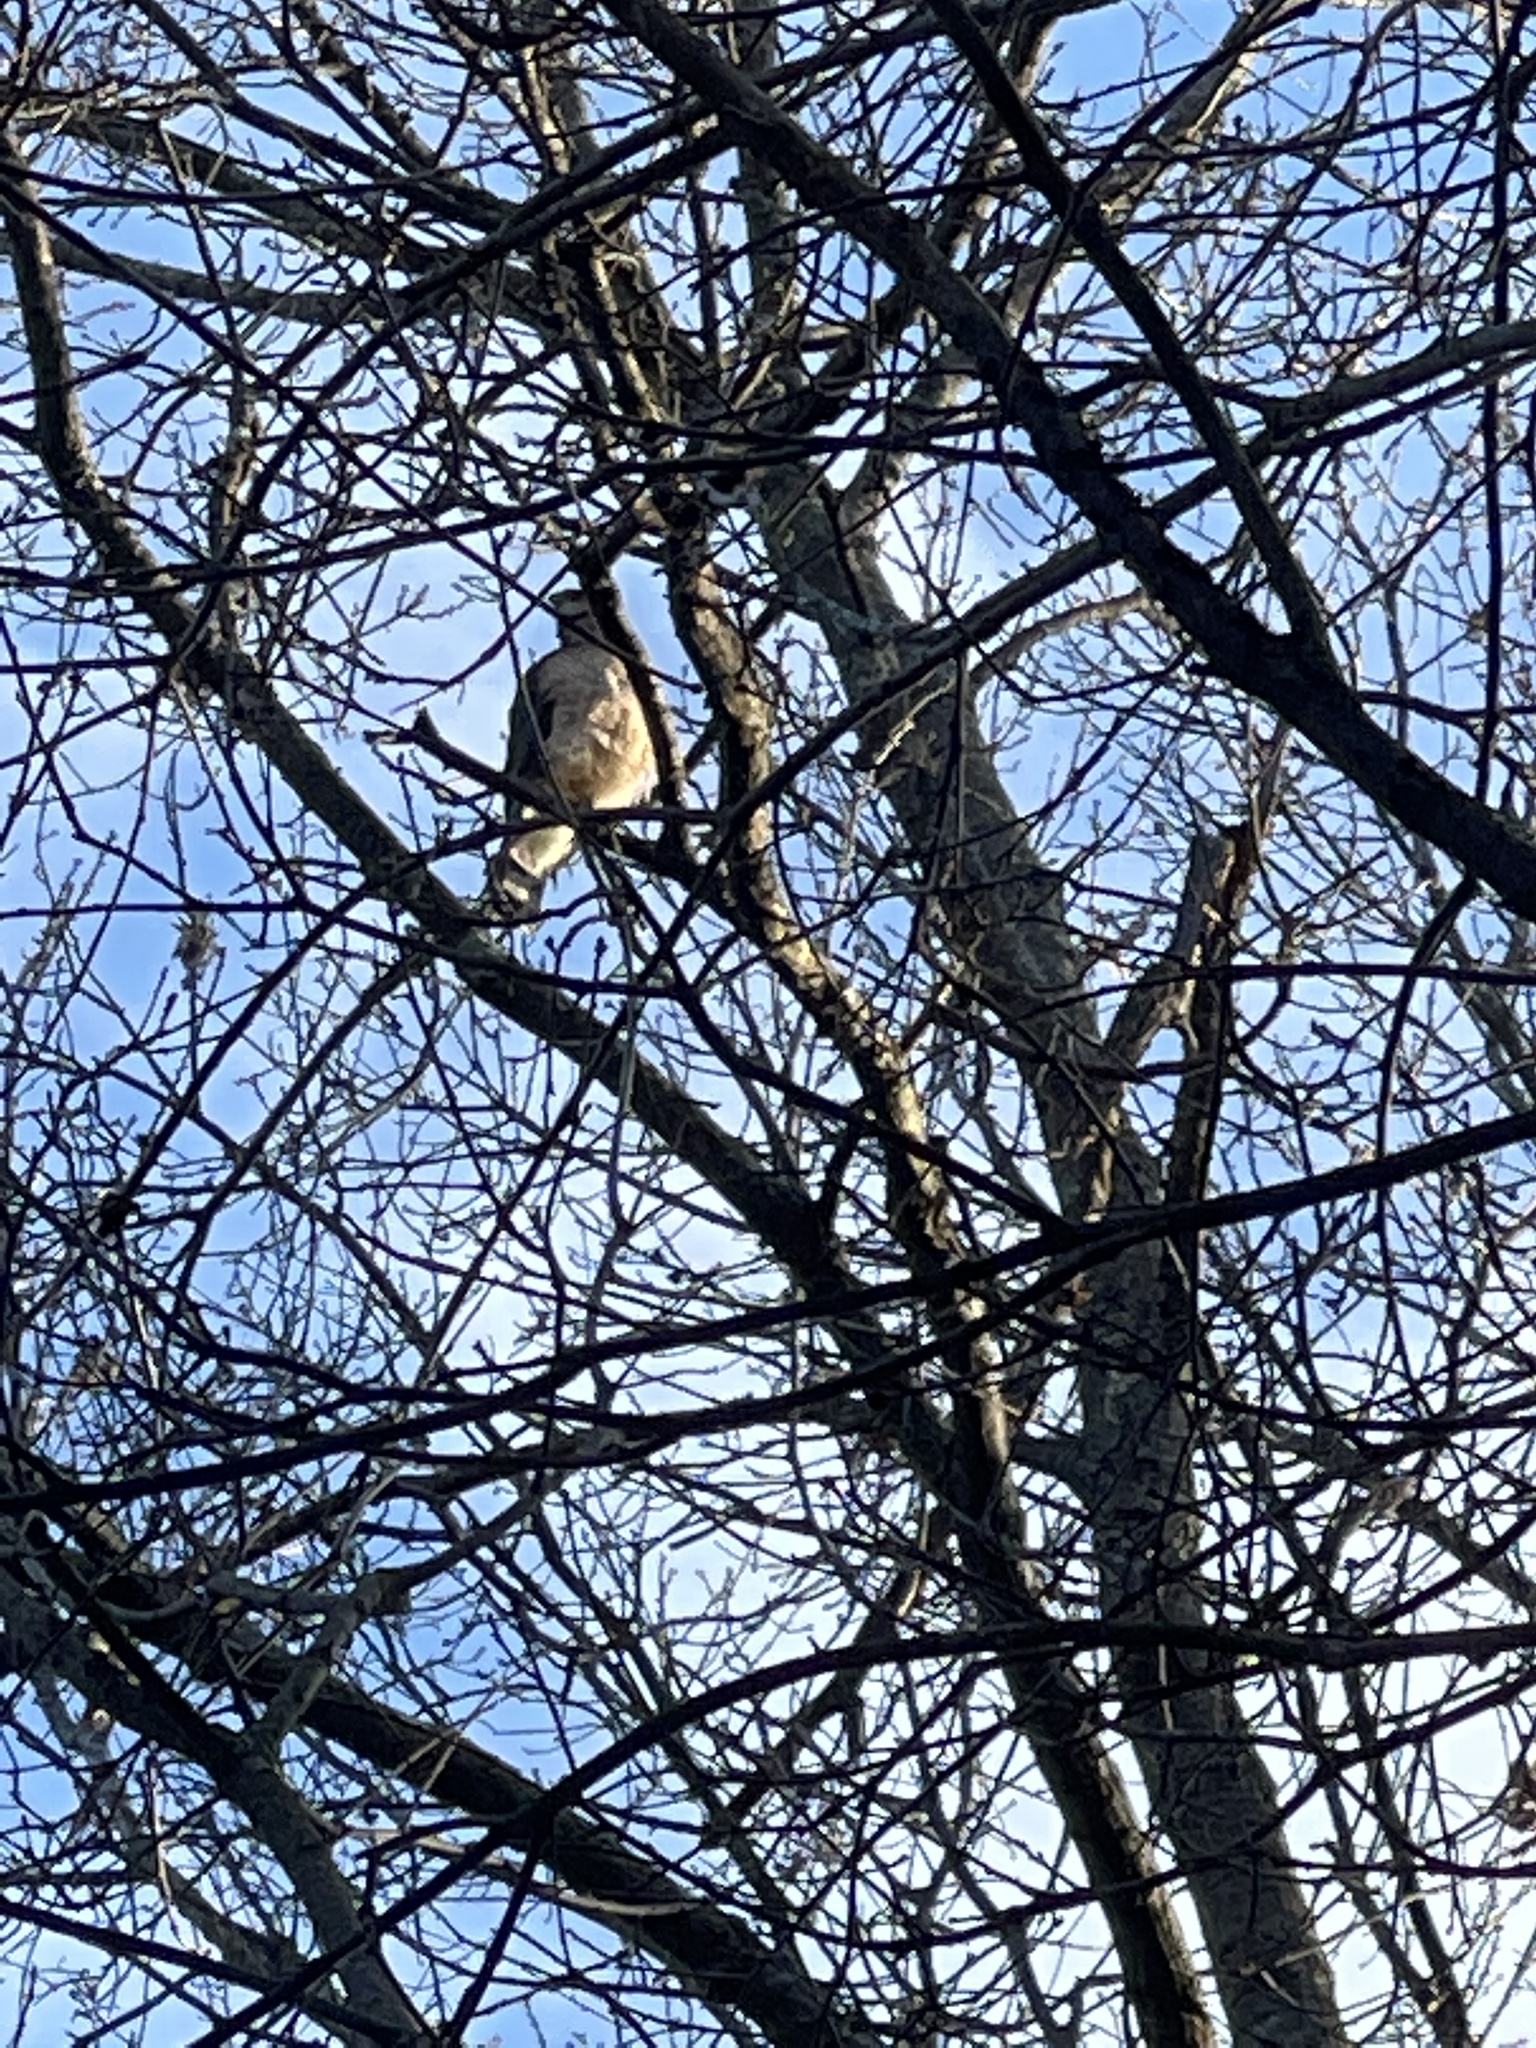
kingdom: Animalia
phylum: Chordata
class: Aves
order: Accipitriformes
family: Accipitridae
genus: Accipiter
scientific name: Accipiter cooperii
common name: Cooper's hawk
